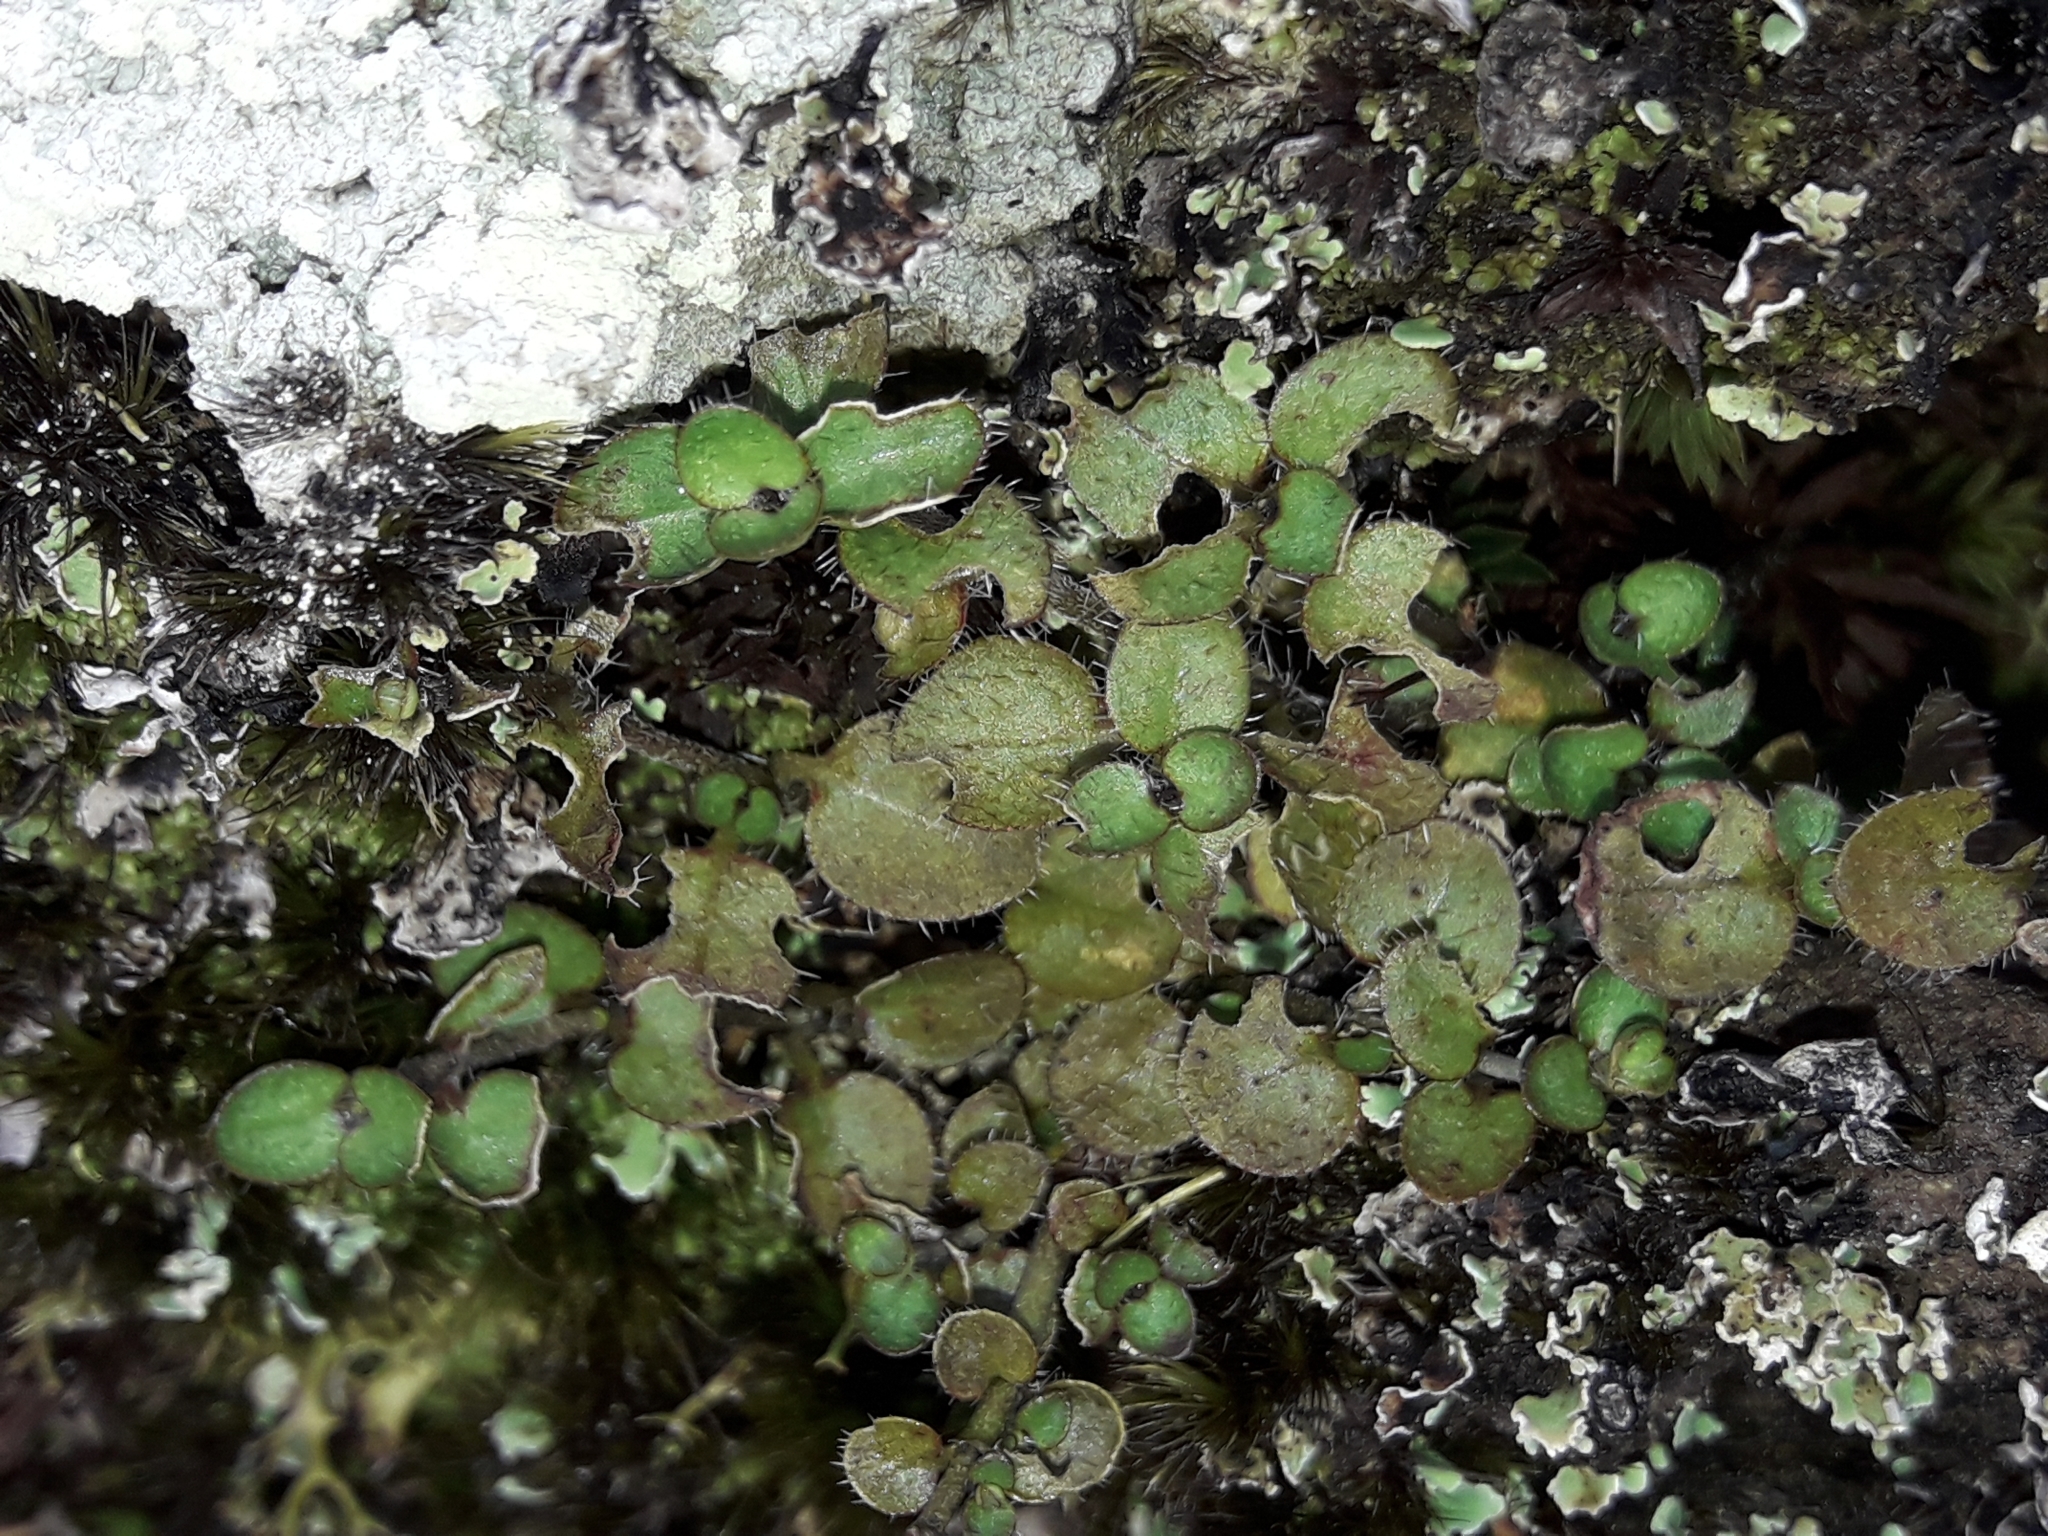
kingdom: Plantae
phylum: Tracheophyta
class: Magnoliopsida
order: Gentianales
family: Rubiaceae
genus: Leptostigma
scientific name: Leptostigma setulosum
